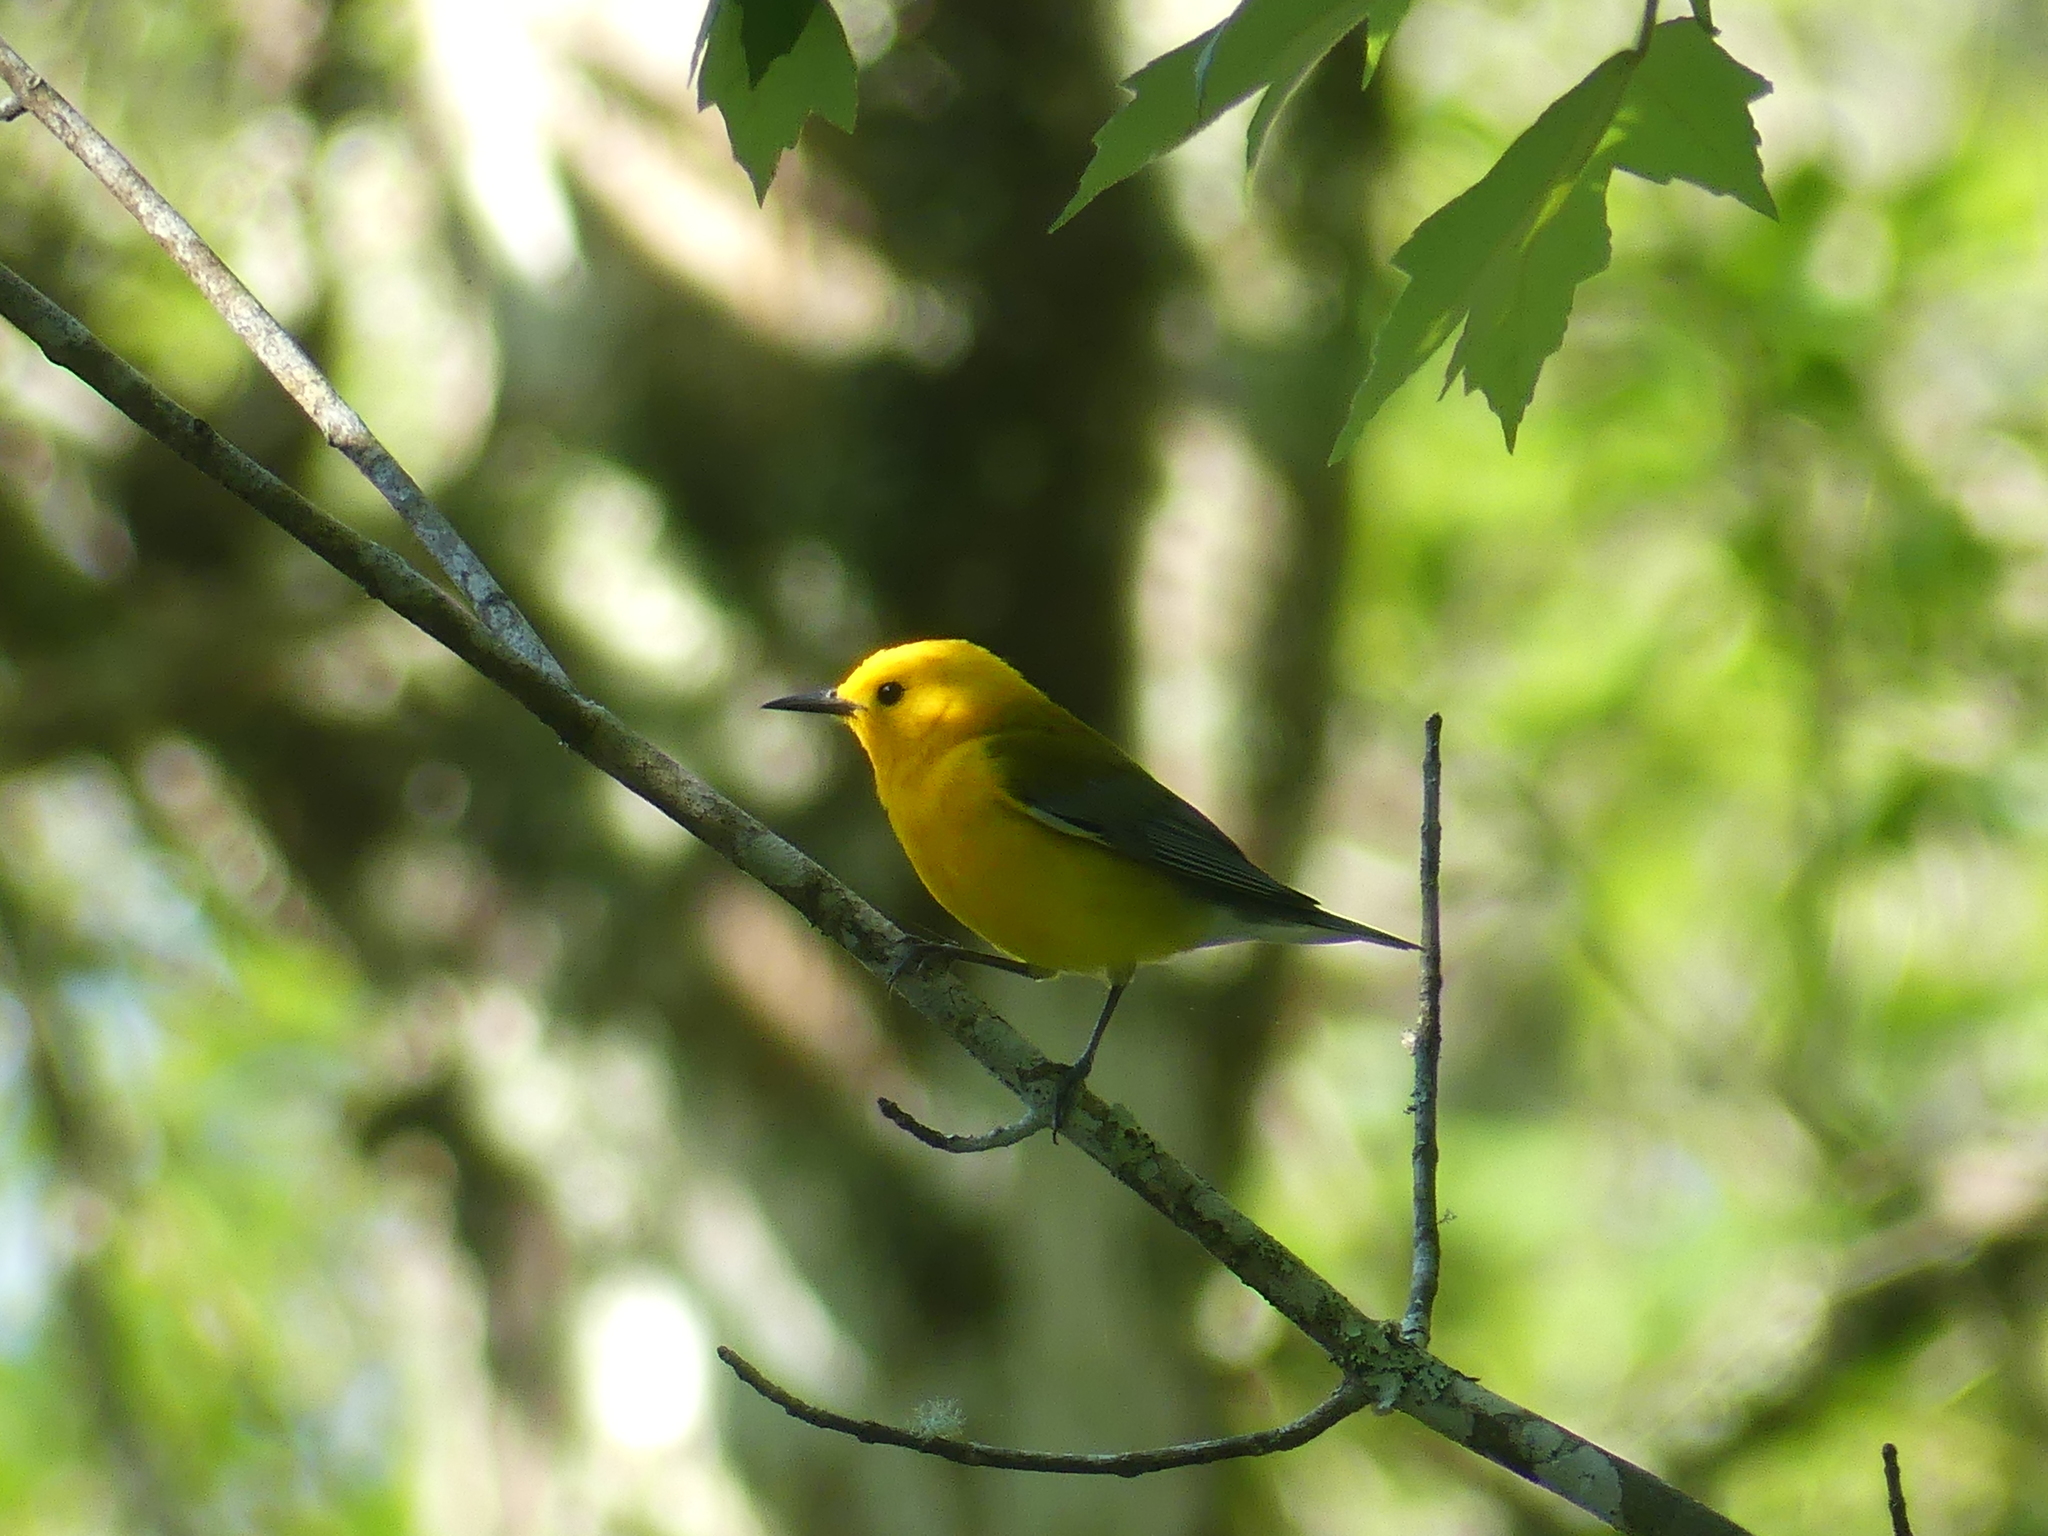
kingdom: Animalia
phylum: Chordata
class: Aves
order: Passeriformes
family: Parulidae
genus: Protonotaria
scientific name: Protonotaria citrea
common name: Prothonotary warbler
